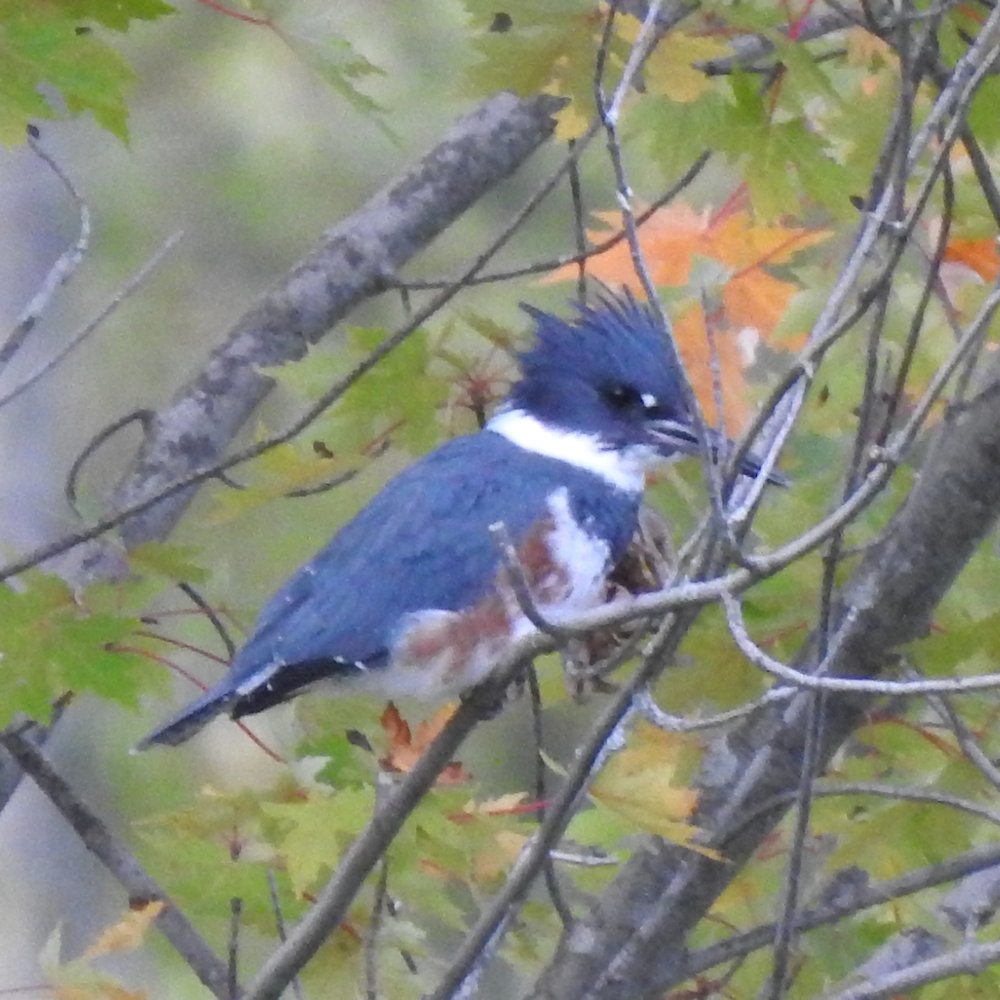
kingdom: Animalia
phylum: Chordata
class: Aves
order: Coraciiformes
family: Alcedinidae
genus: Megaceryle
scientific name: Megaceryle alcyon
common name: Belted kingfisher
